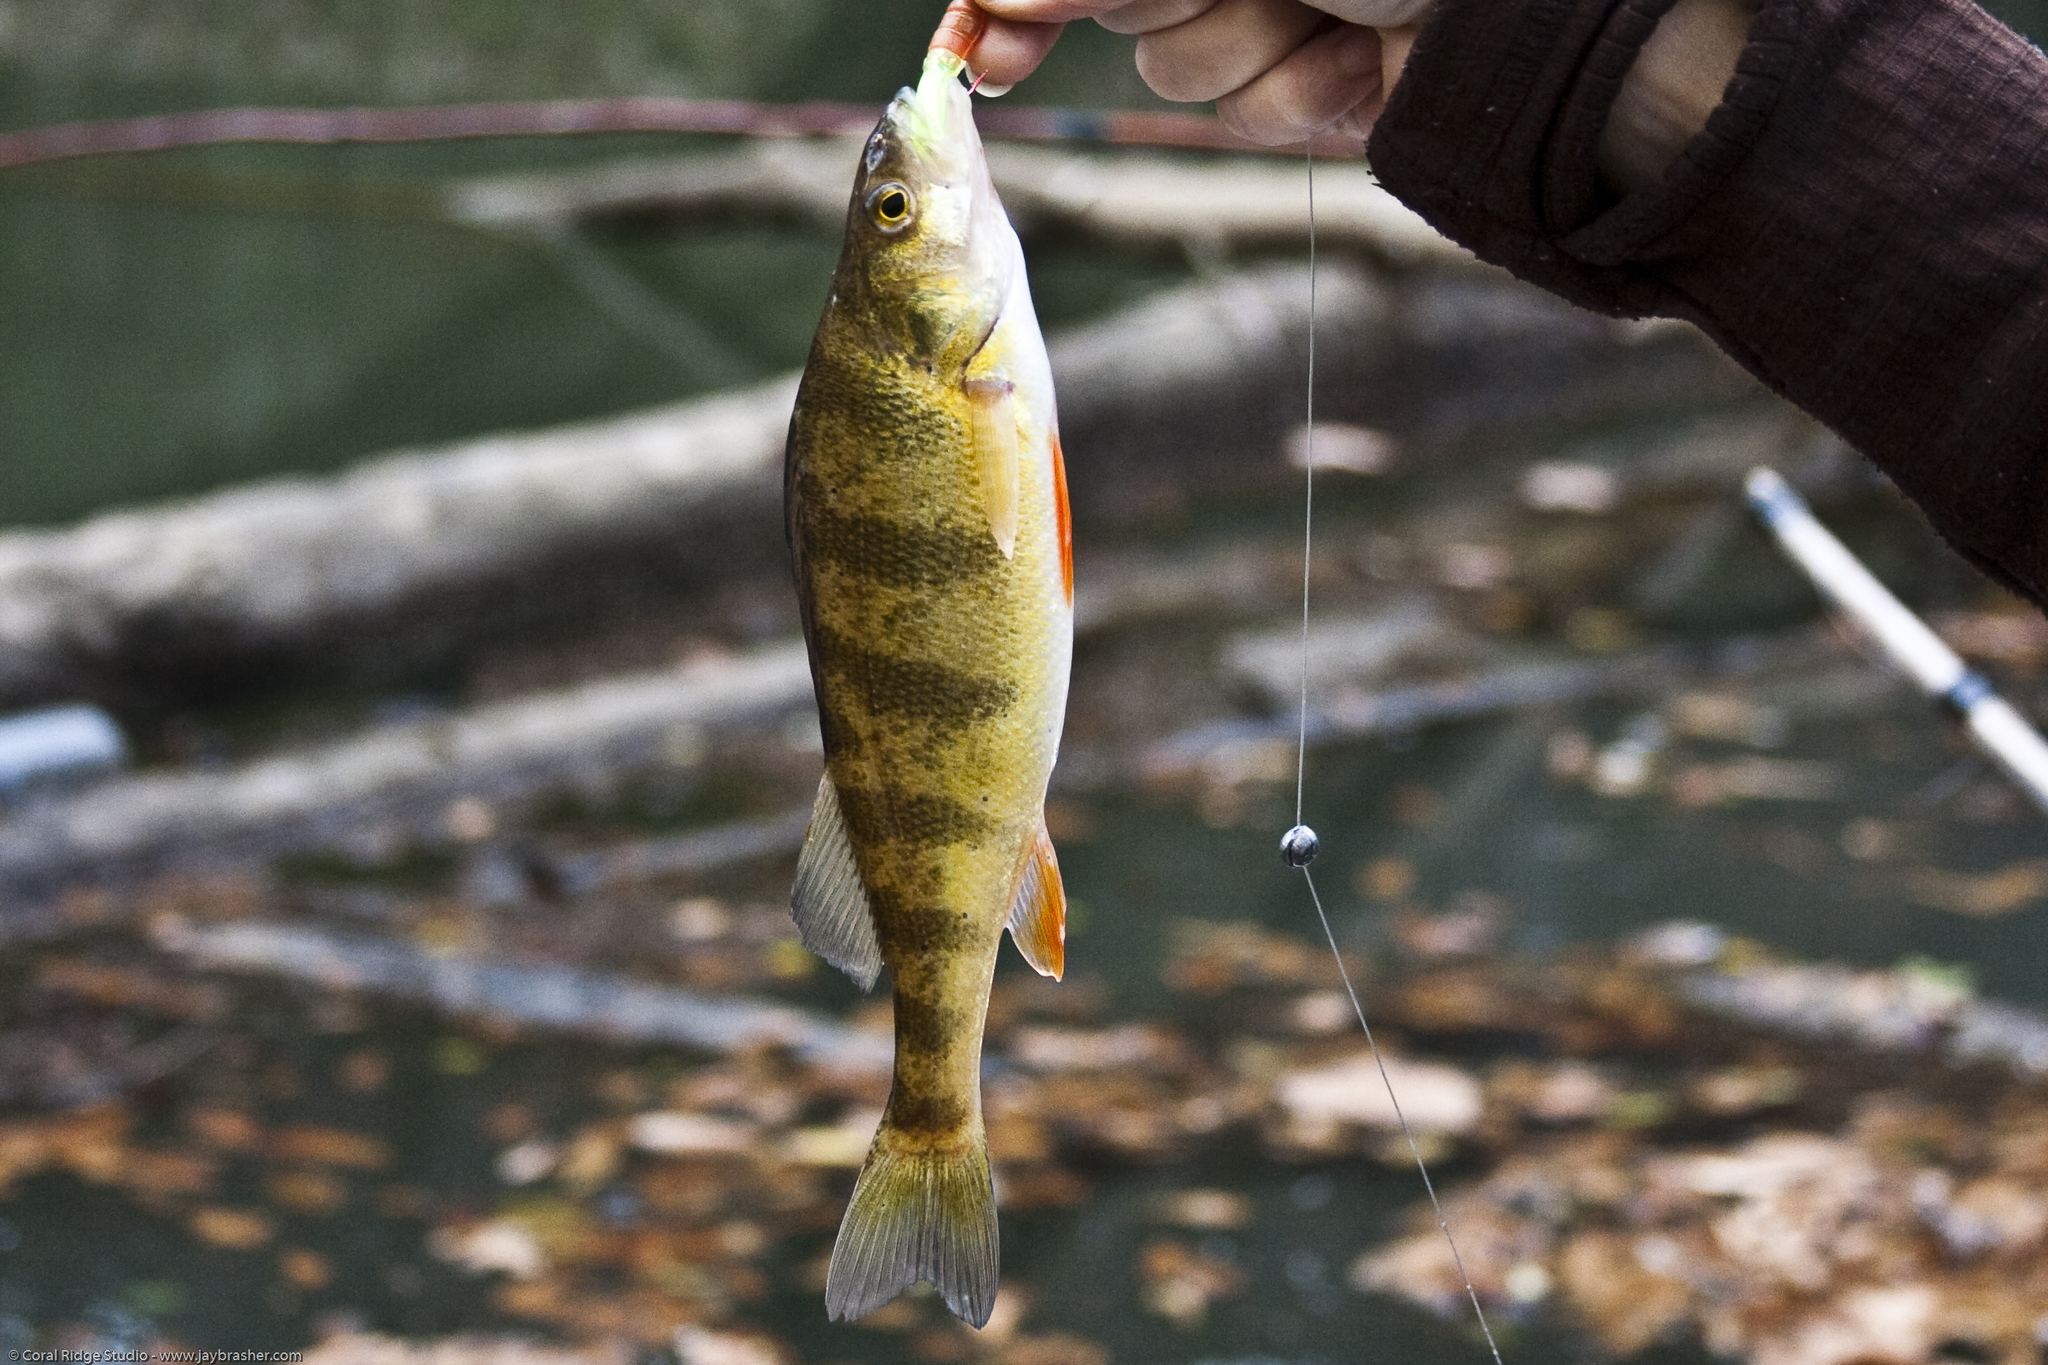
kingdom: Animalia
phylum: Chordata
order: Perciformes
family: Percidae
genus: Perca
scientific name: Perca flavescens
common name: Yellow perch
